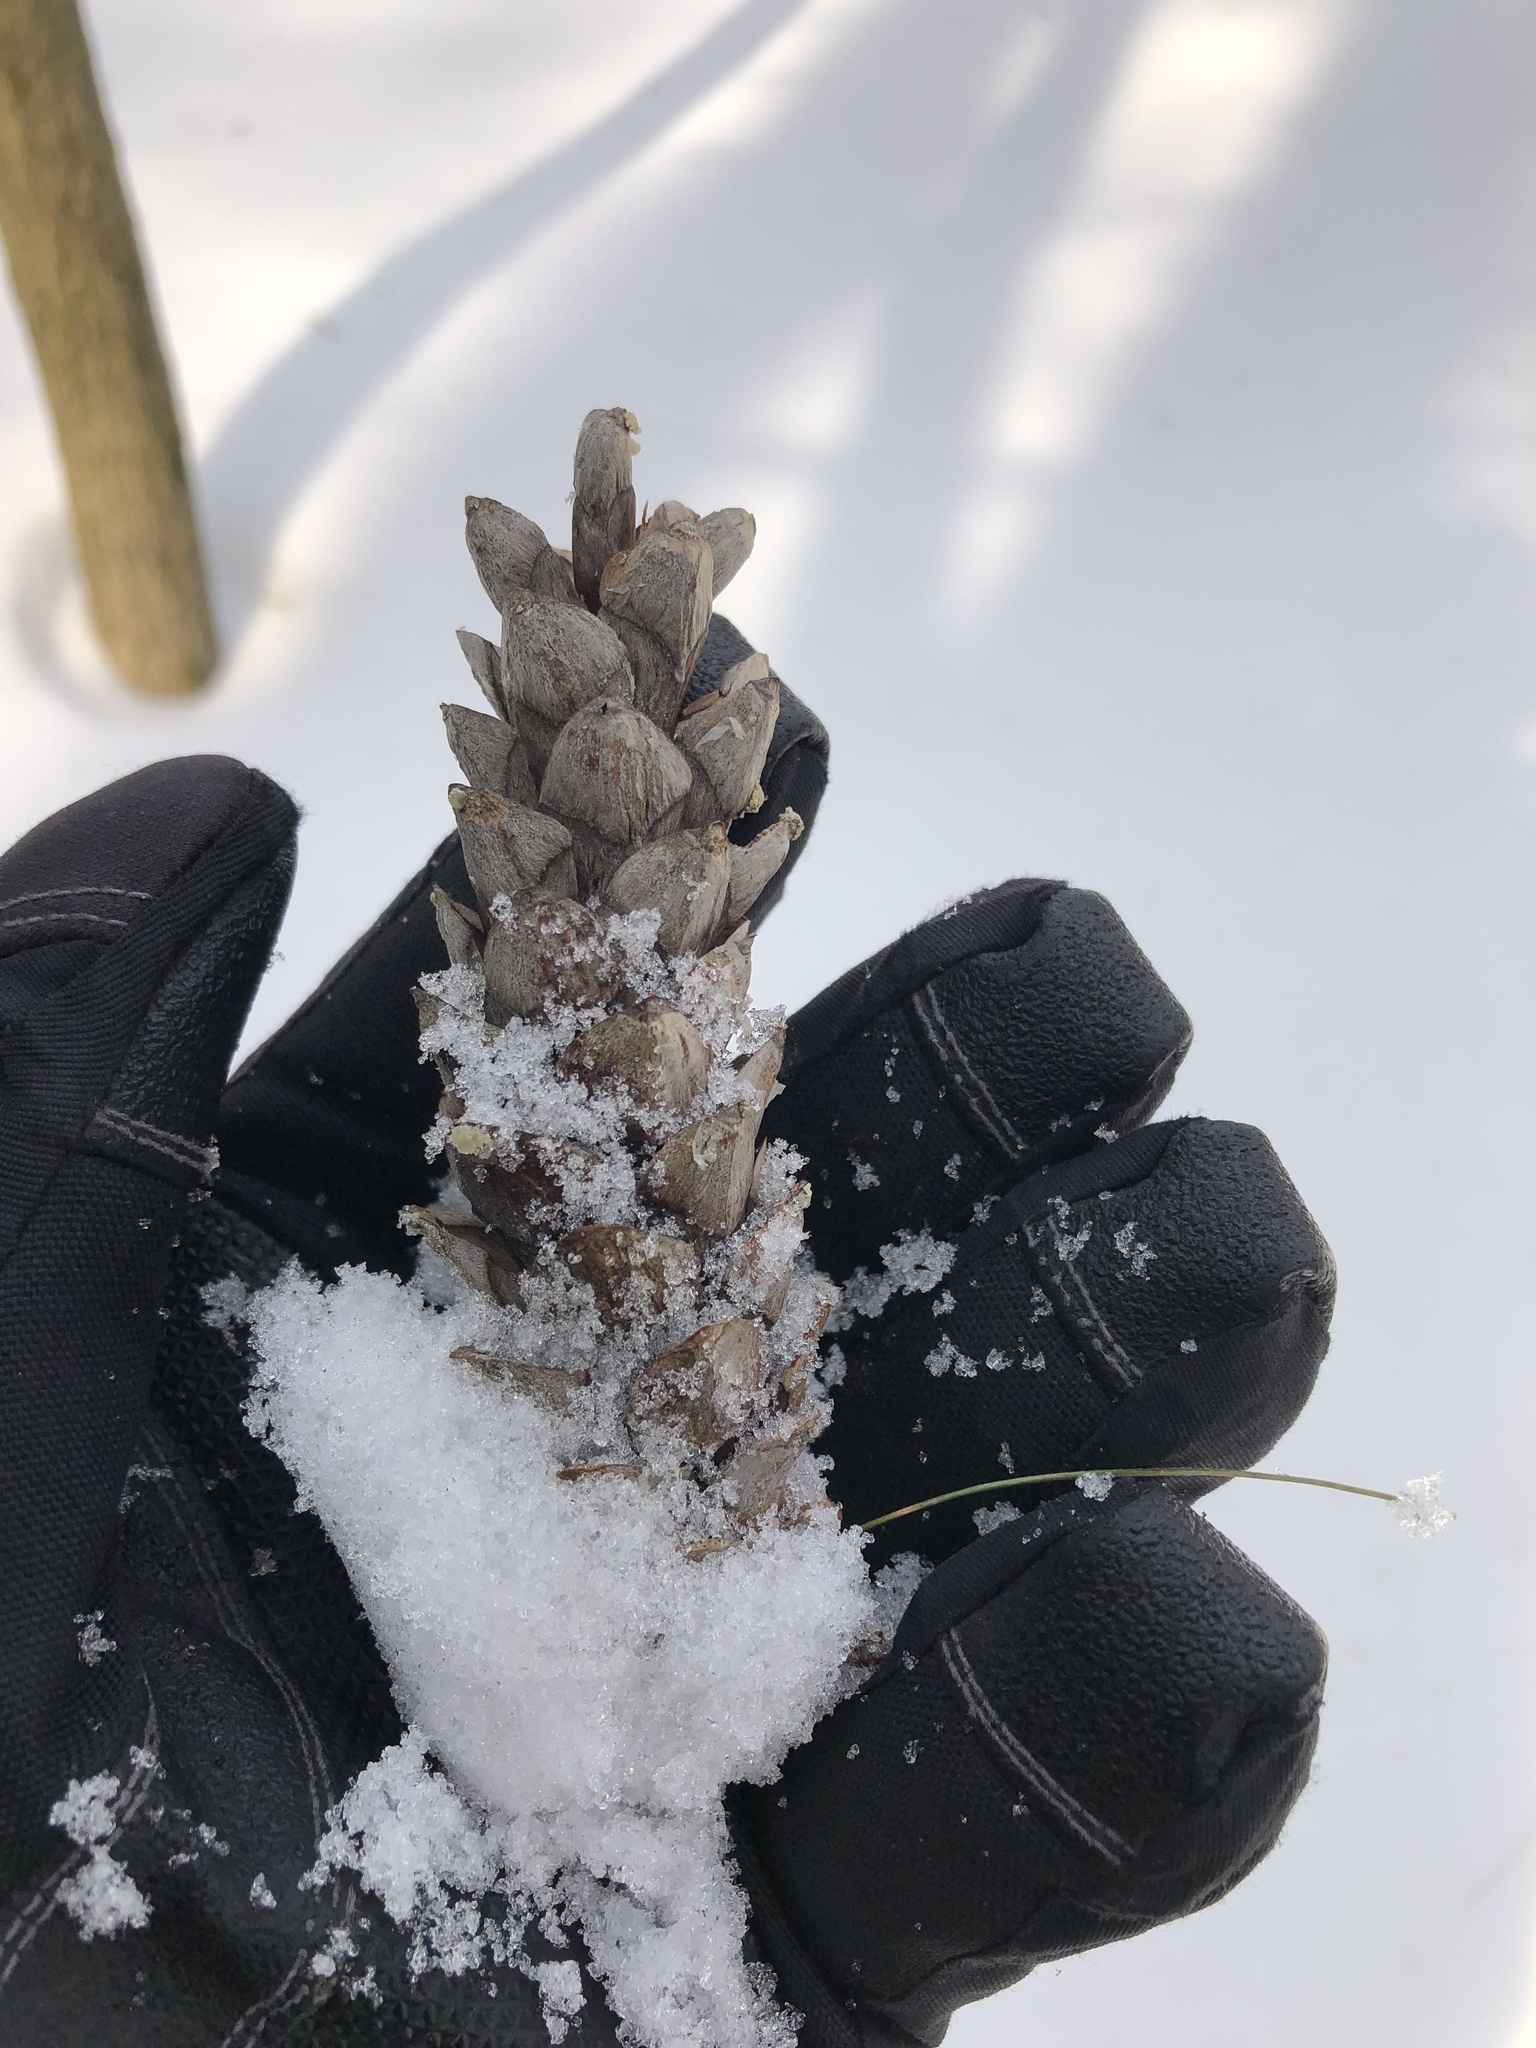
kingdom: Plantae
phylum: Tracheophyta
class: Pinopsida
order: Pinales
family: Pinaceae
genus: Pinus
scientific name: Pinus strobus
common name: Weymouth pine
